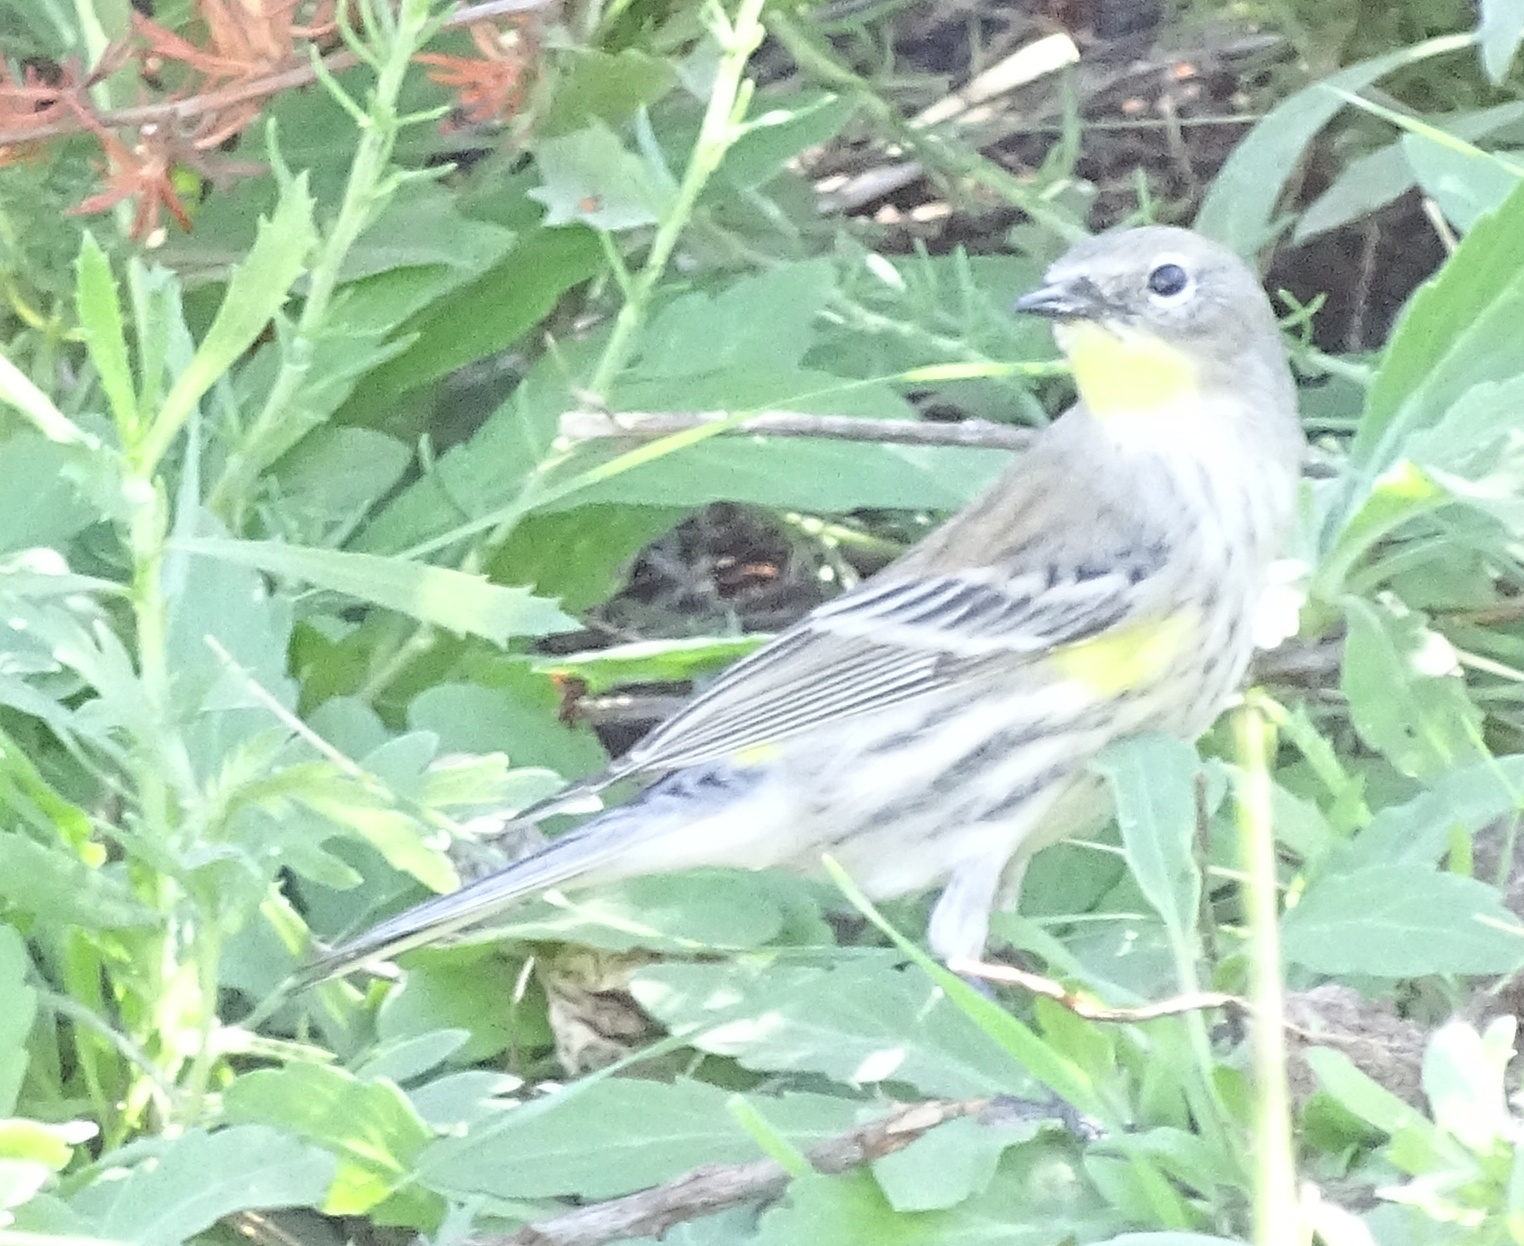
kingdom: Animalia
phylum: Chordata
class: Aves
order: Passeriformes
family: Parulidae
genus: Setophaga
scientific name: Setophaga coronata
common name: Myrtle warbler
